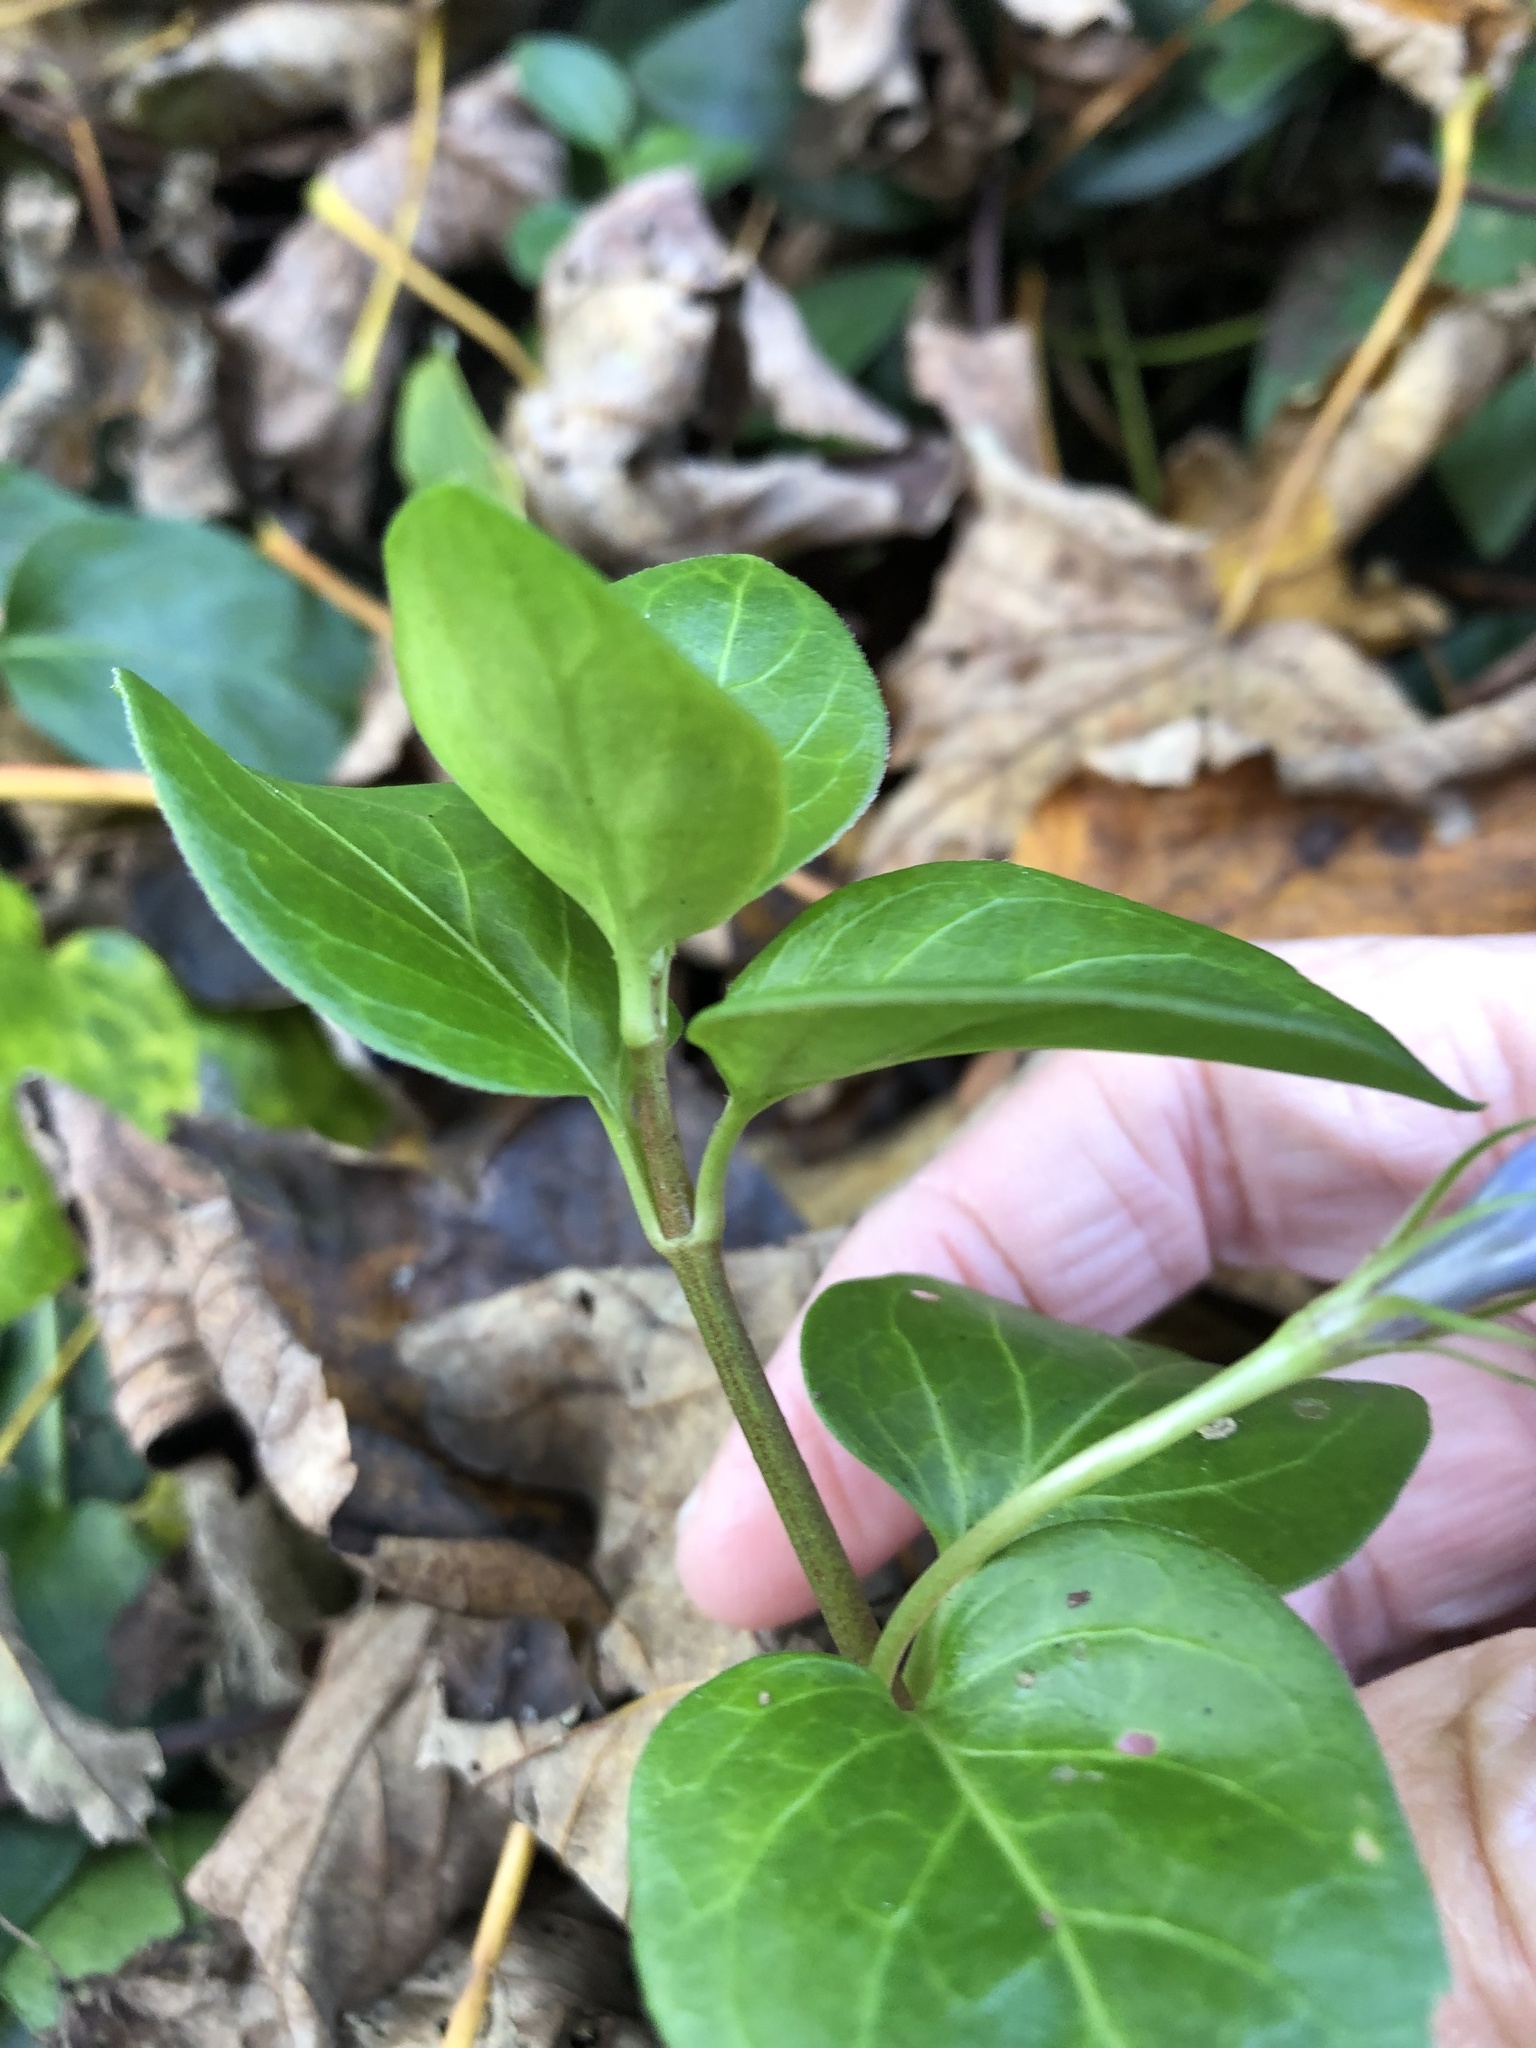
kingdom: Plantae
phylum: Tracheophyta
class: Magnoliopsida
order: Gentianales
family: Apocynaceae
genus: Vinca
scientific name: Vinca major
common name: Greater periwinkle
